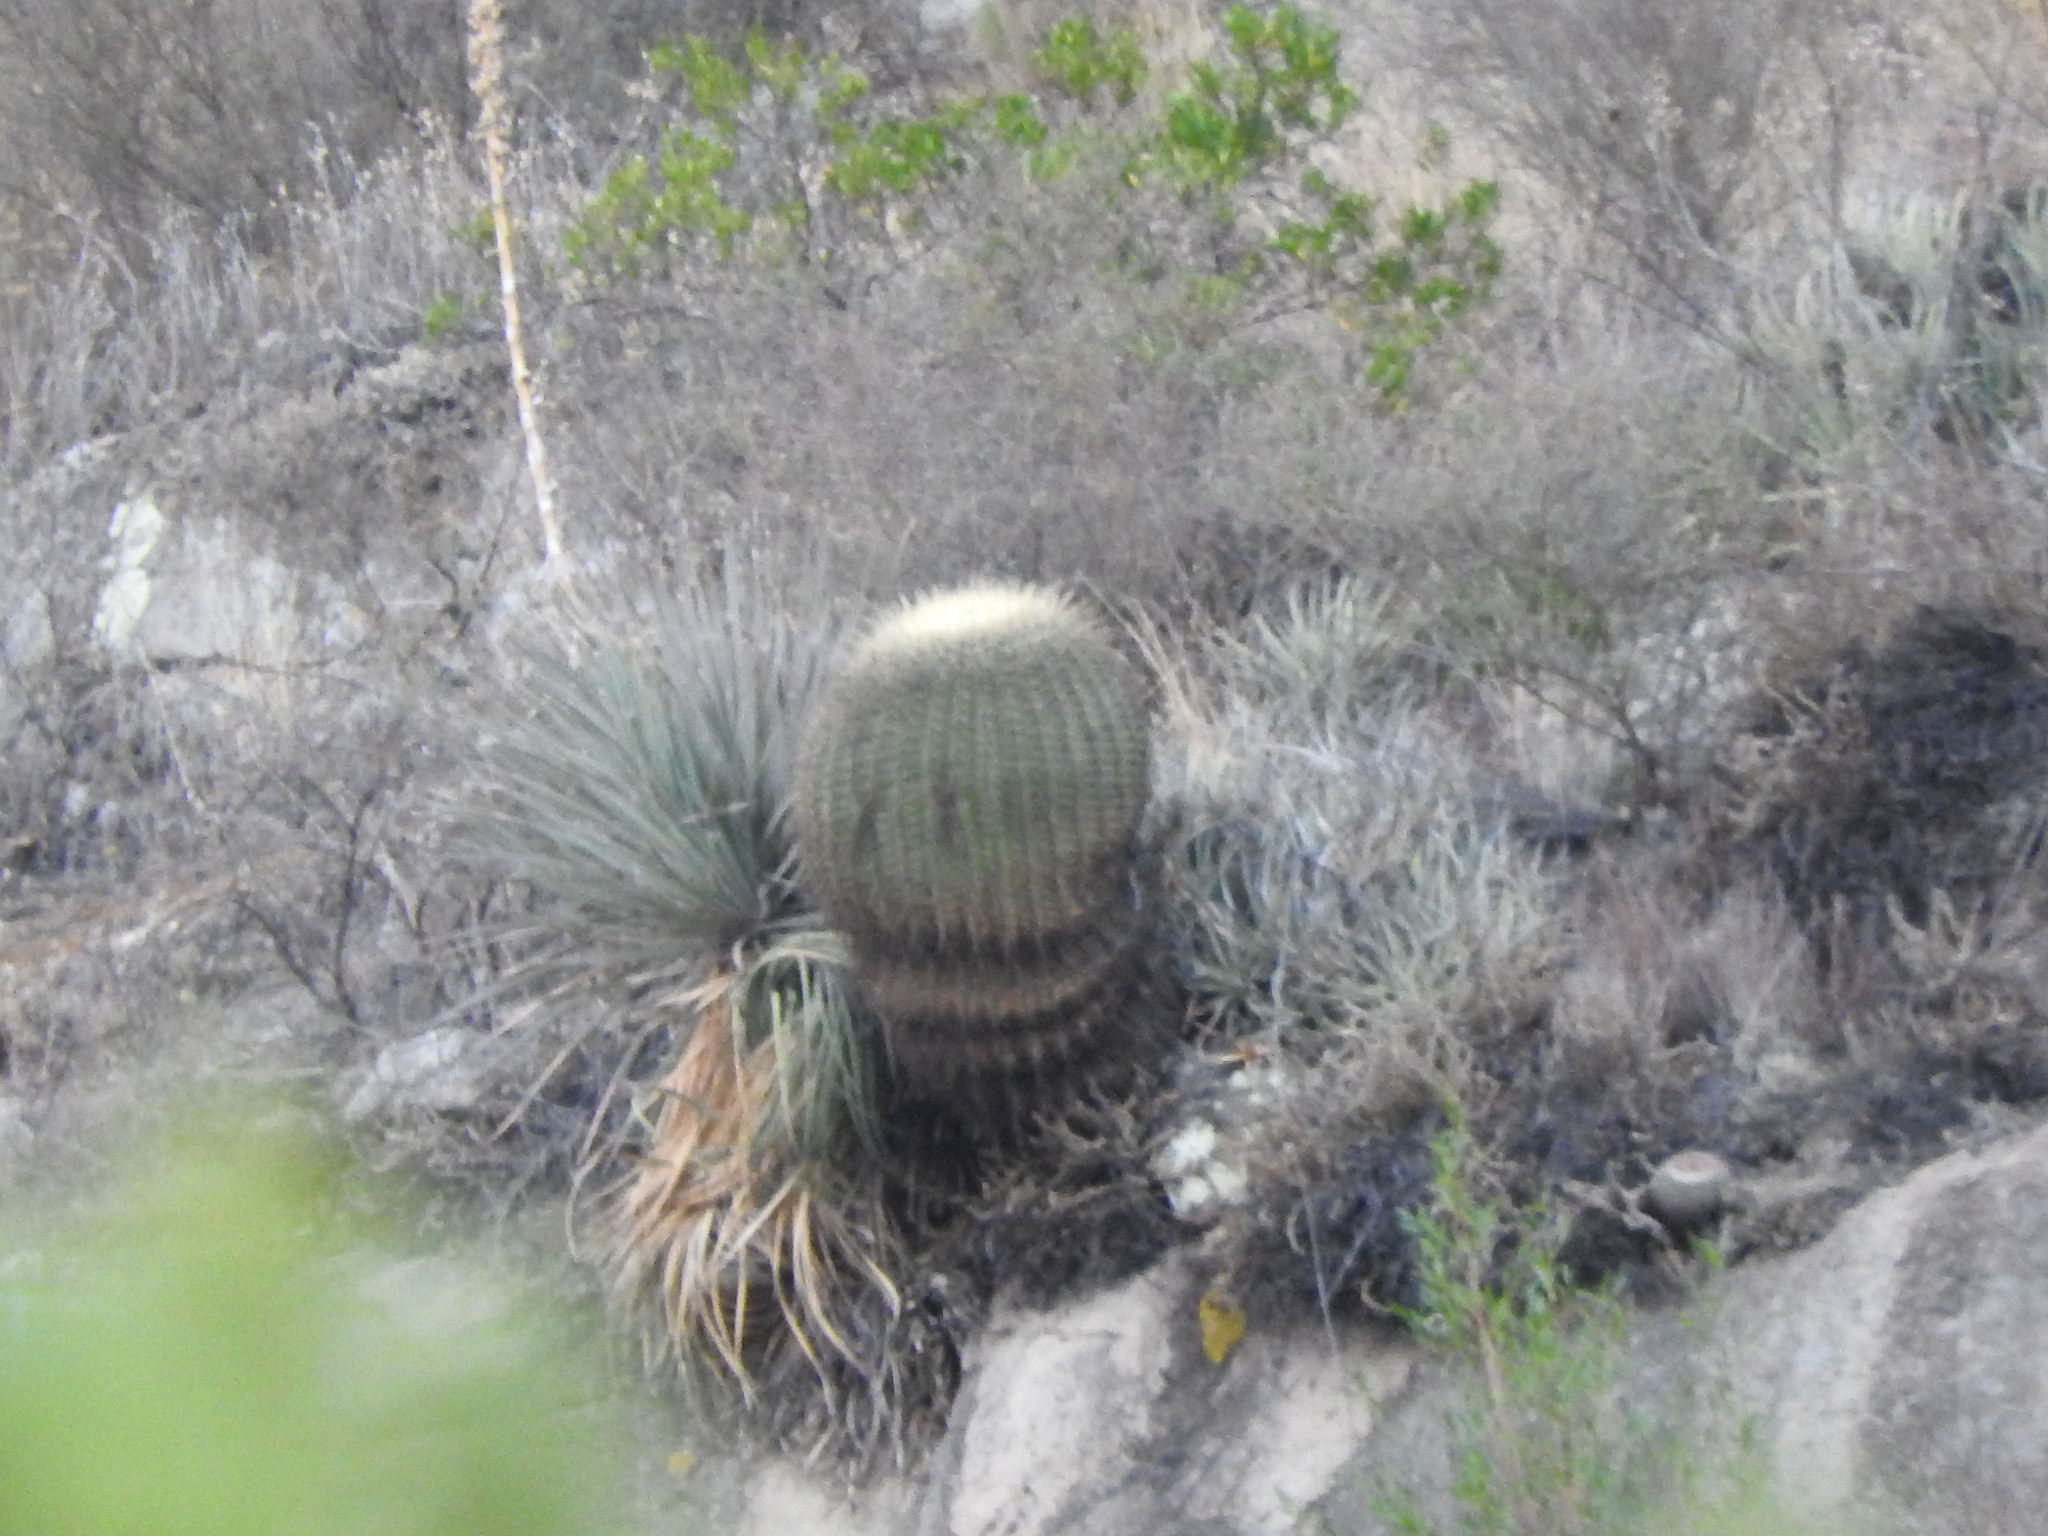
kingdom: Plantae
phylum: Tracheophyta
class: Magnoliopsida
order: Caryophyllales
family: Cactaceae
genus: Bisnaga
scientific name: Bisnaga histrix
